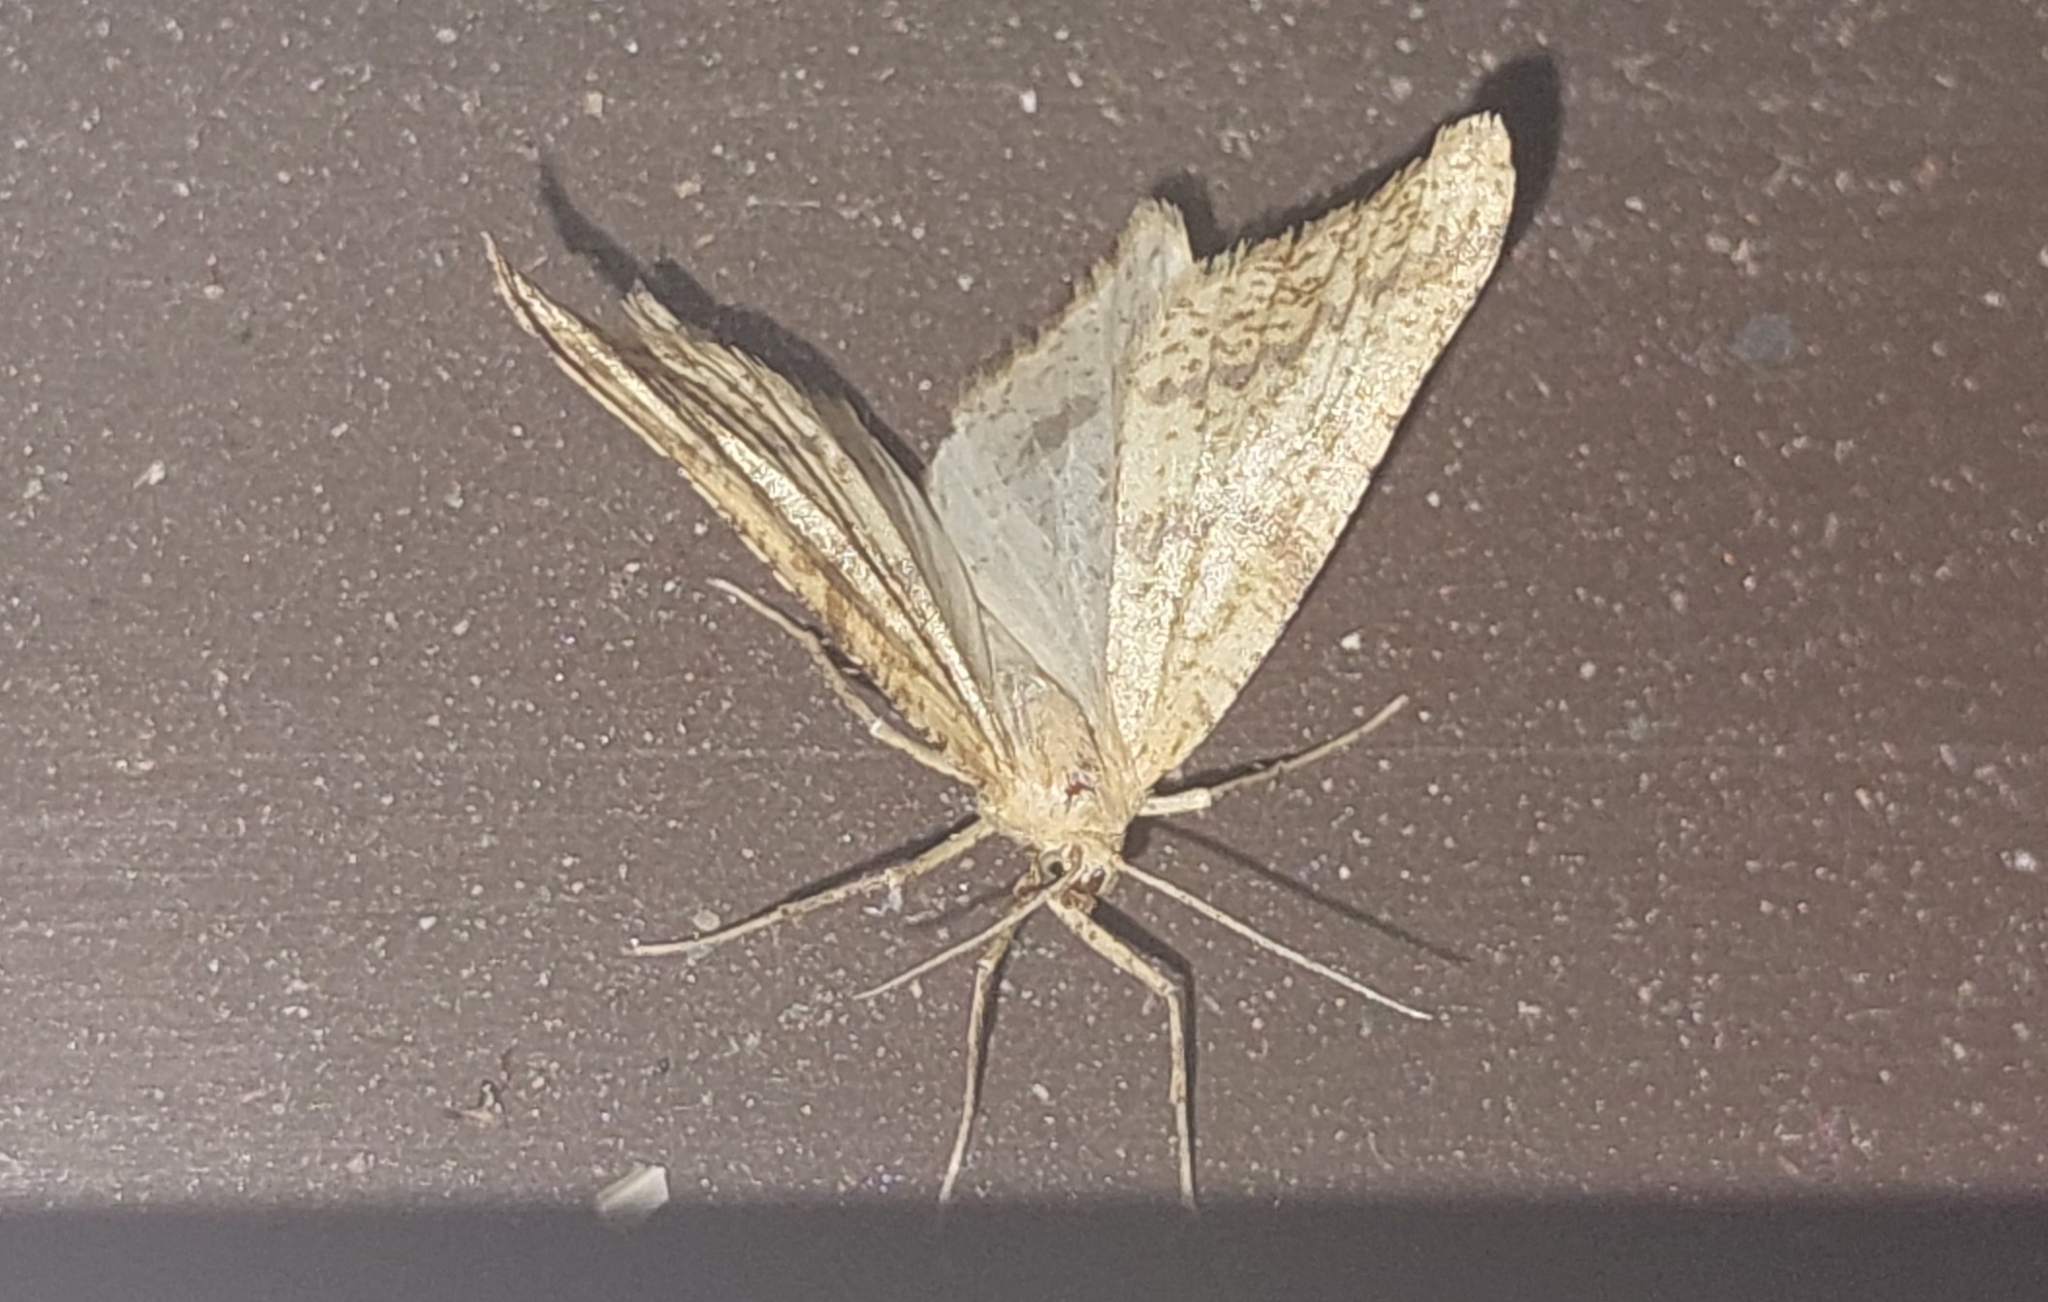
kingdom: Animalia
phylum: Arthropoda
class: Insecta
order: Lepidoptera
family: Geometridae
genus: Aspitates
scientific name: Aspitates ochrearia
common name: Yellow belle
